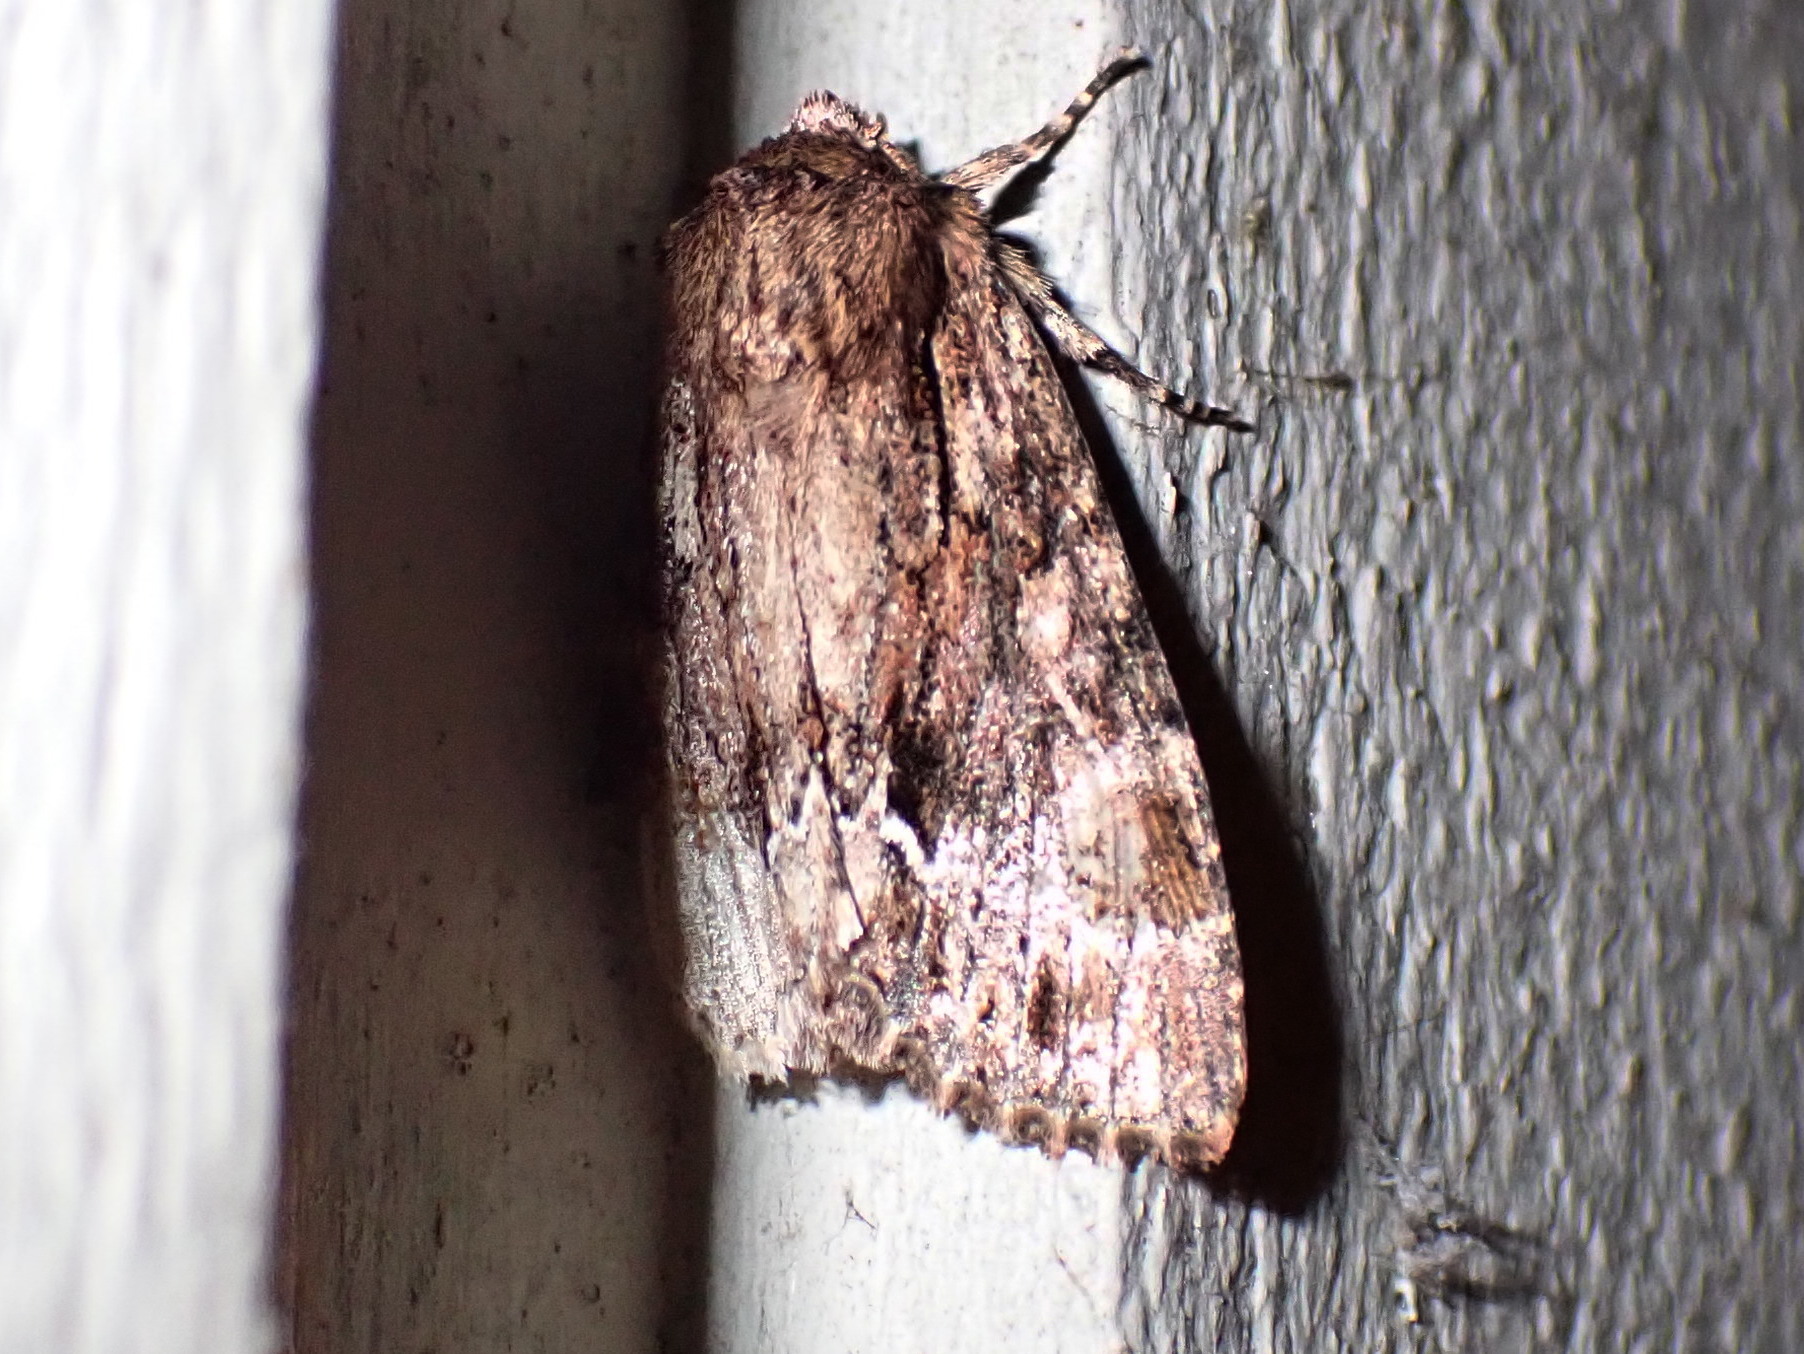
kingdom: Animalia
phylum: Arthropoda
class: Insecta
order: Lepidoptera
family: Noctuidae
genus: Achatia
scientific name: Achatia confusa
